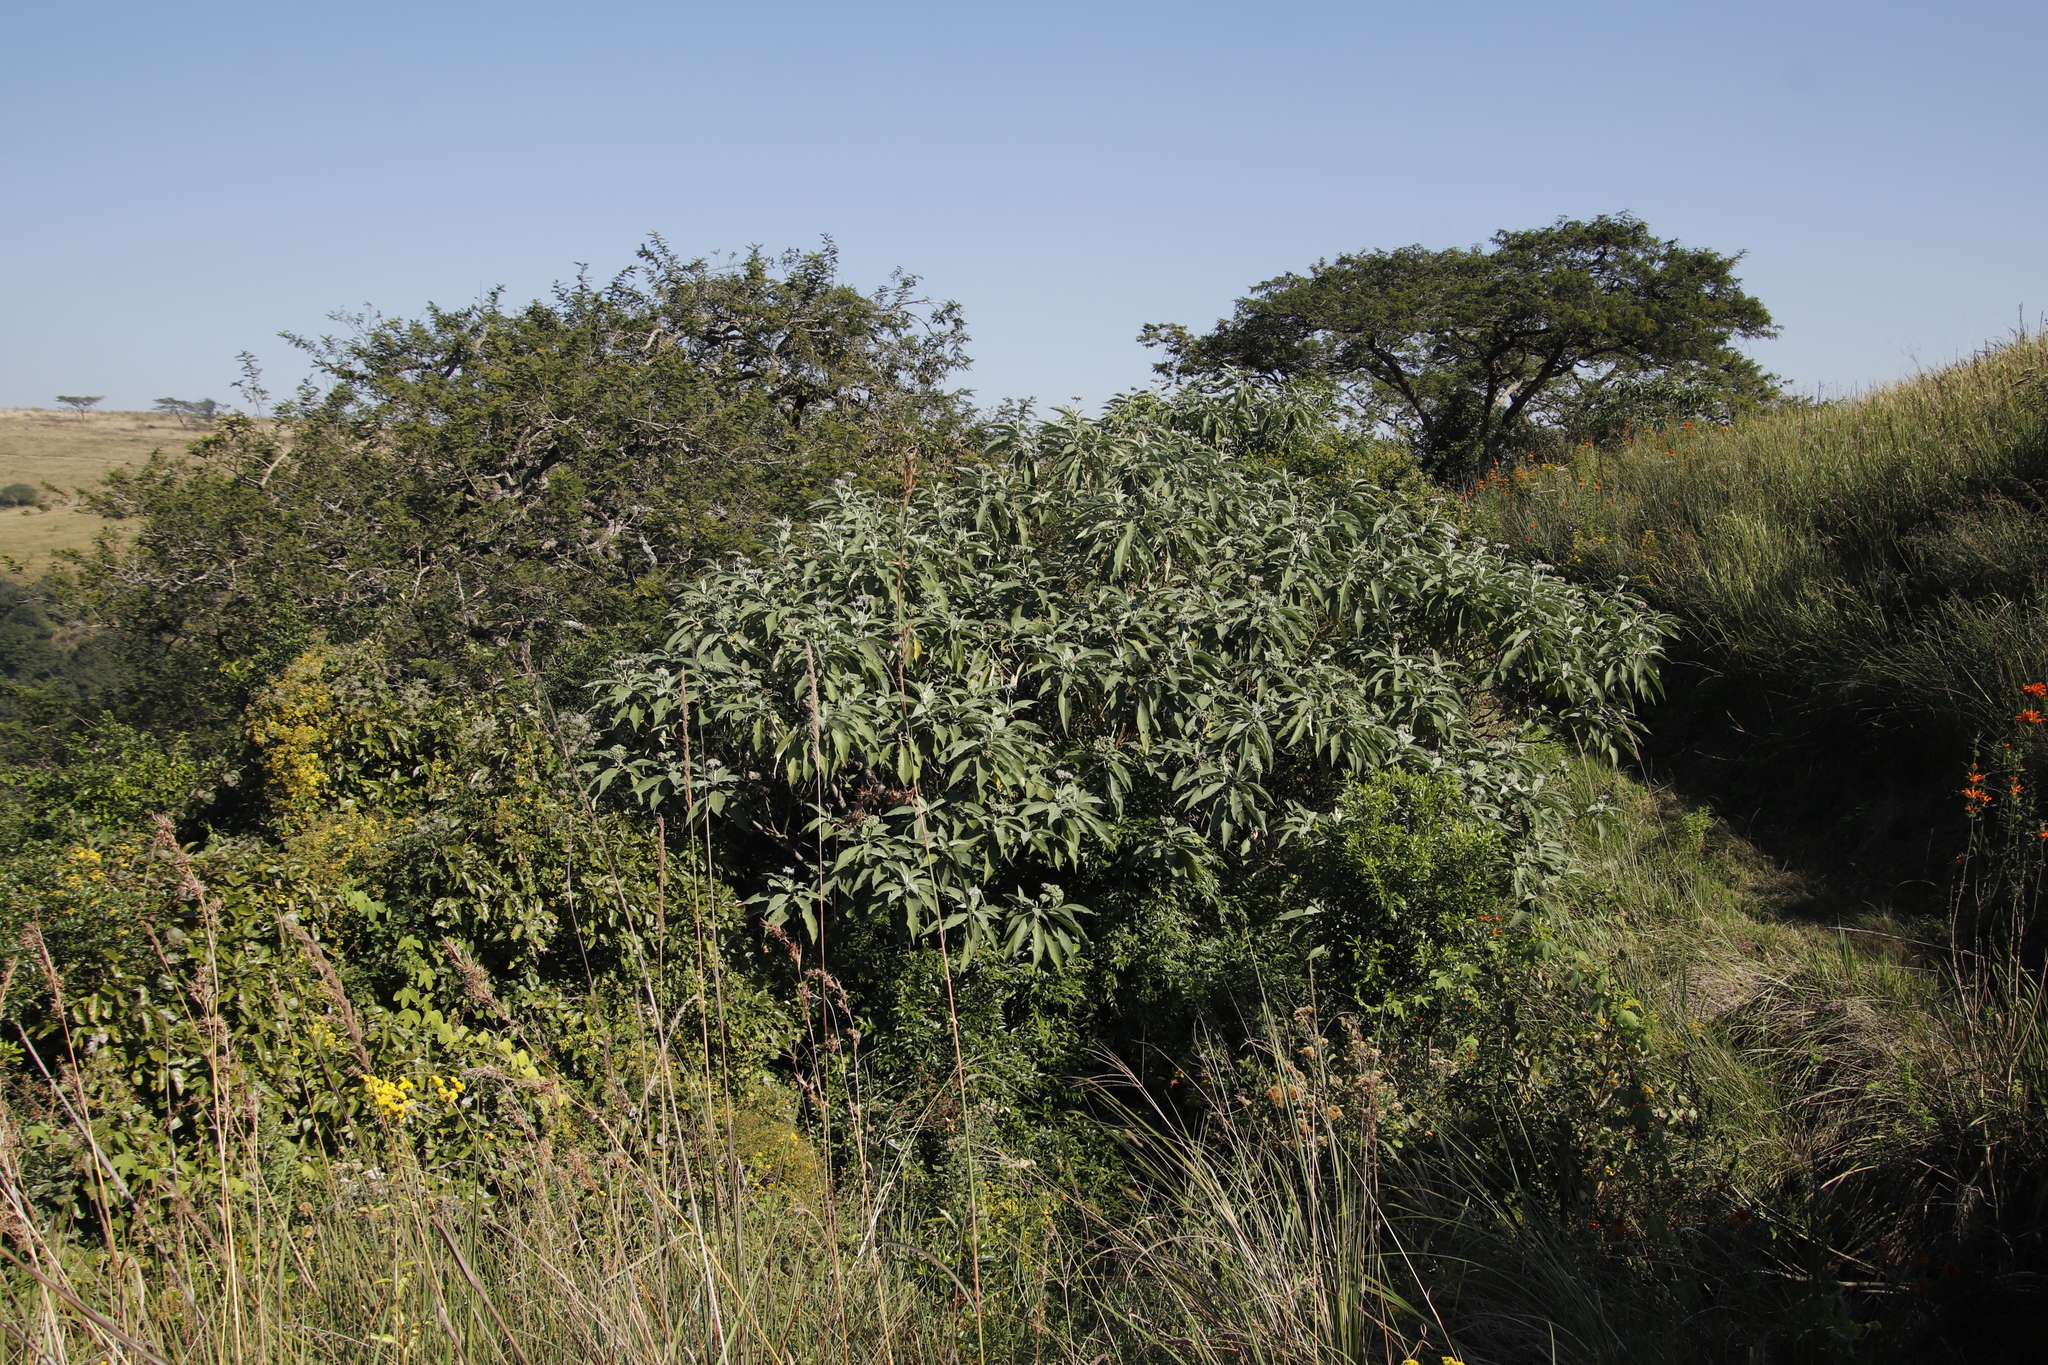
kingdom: Plantae
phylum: Tracheophyta
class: Magnoliopsida
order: Solanales
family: Solanaceae
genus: Solanum
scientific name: Solanum mauritianum
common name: Earleaf nightshade
